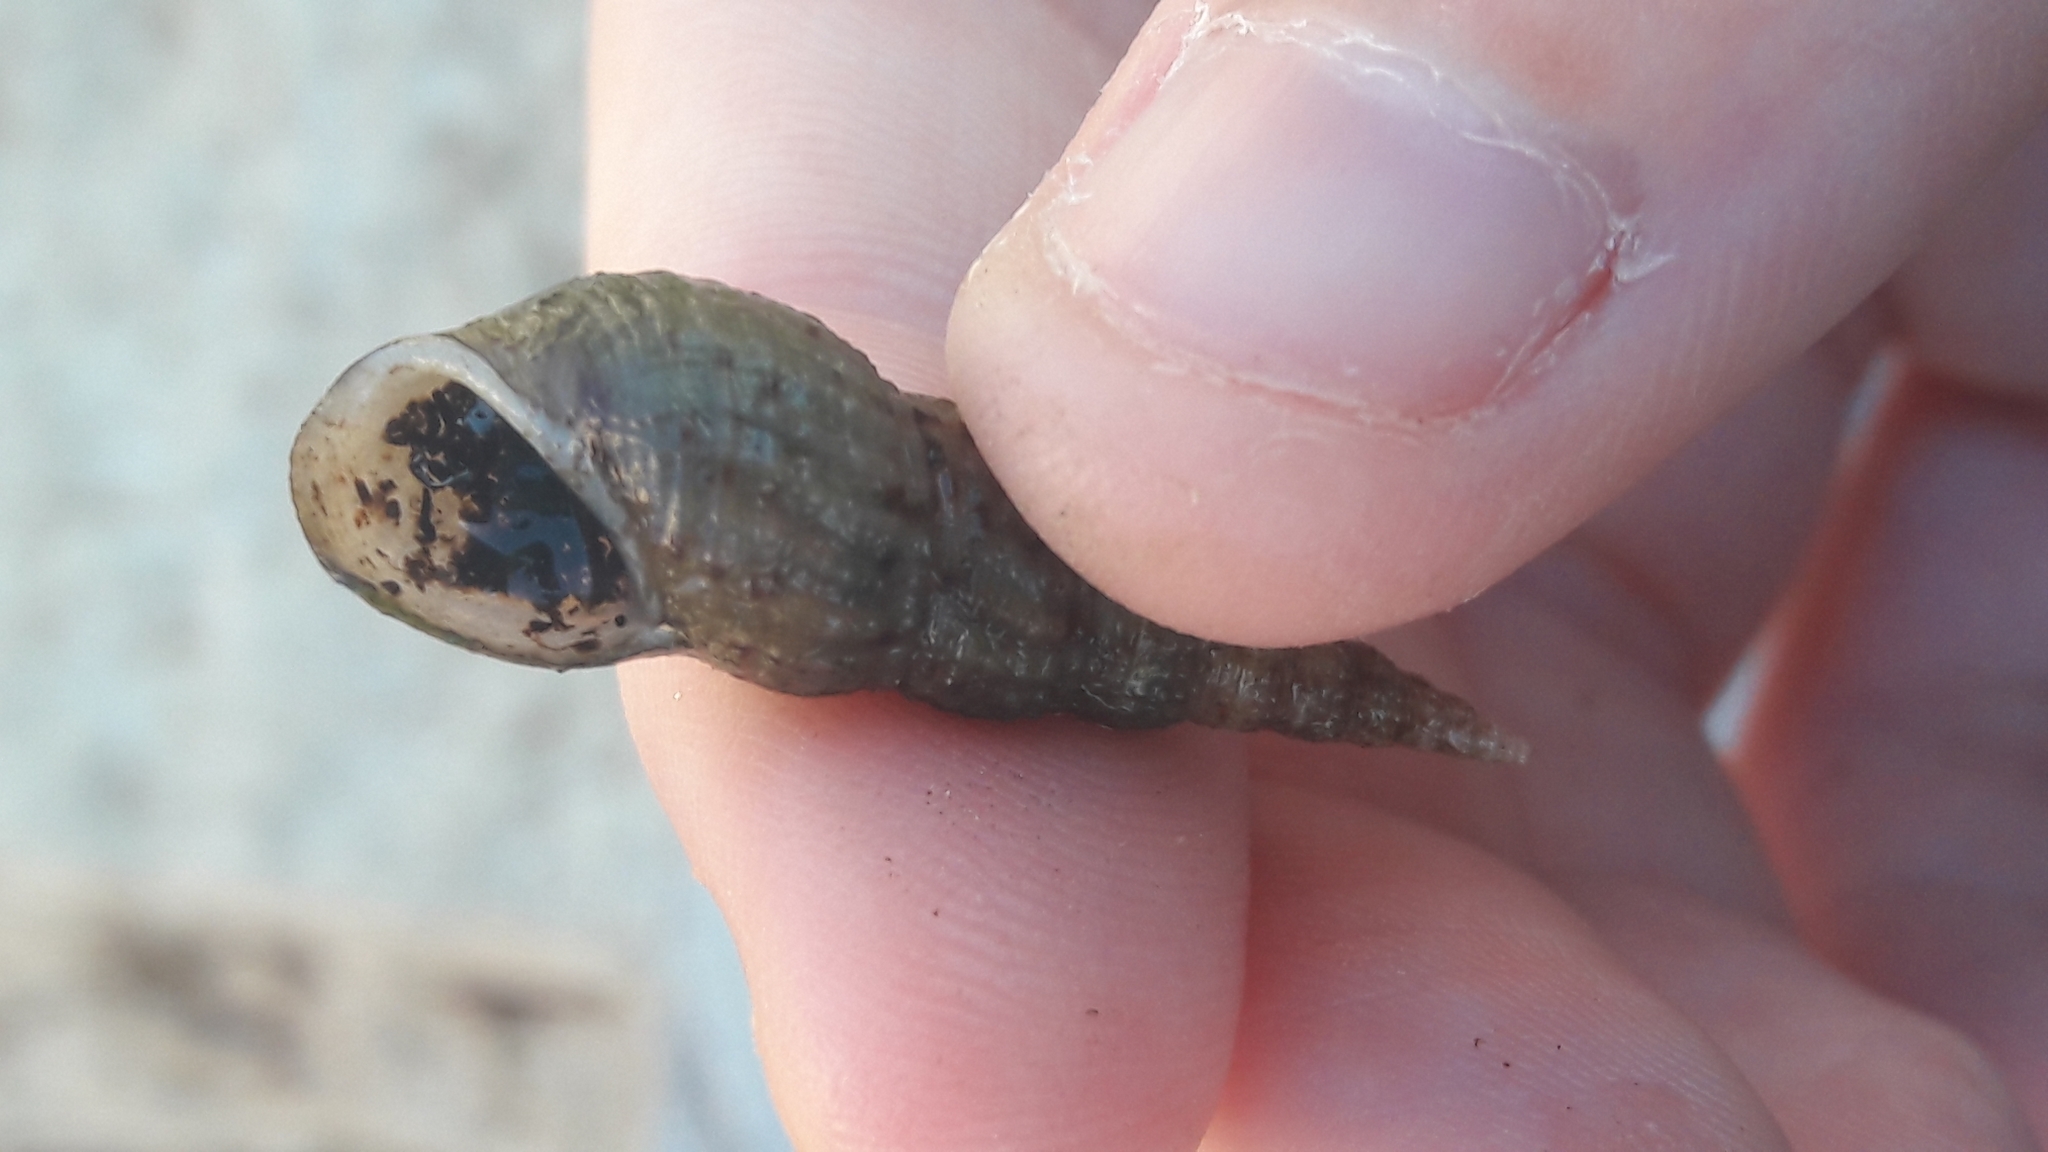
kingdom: Animalia
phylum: Mollusca
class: Gastropoda
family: Thiaridae
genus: Melanoides
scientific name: Melanoides tuberculata
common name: Red-rim melania
